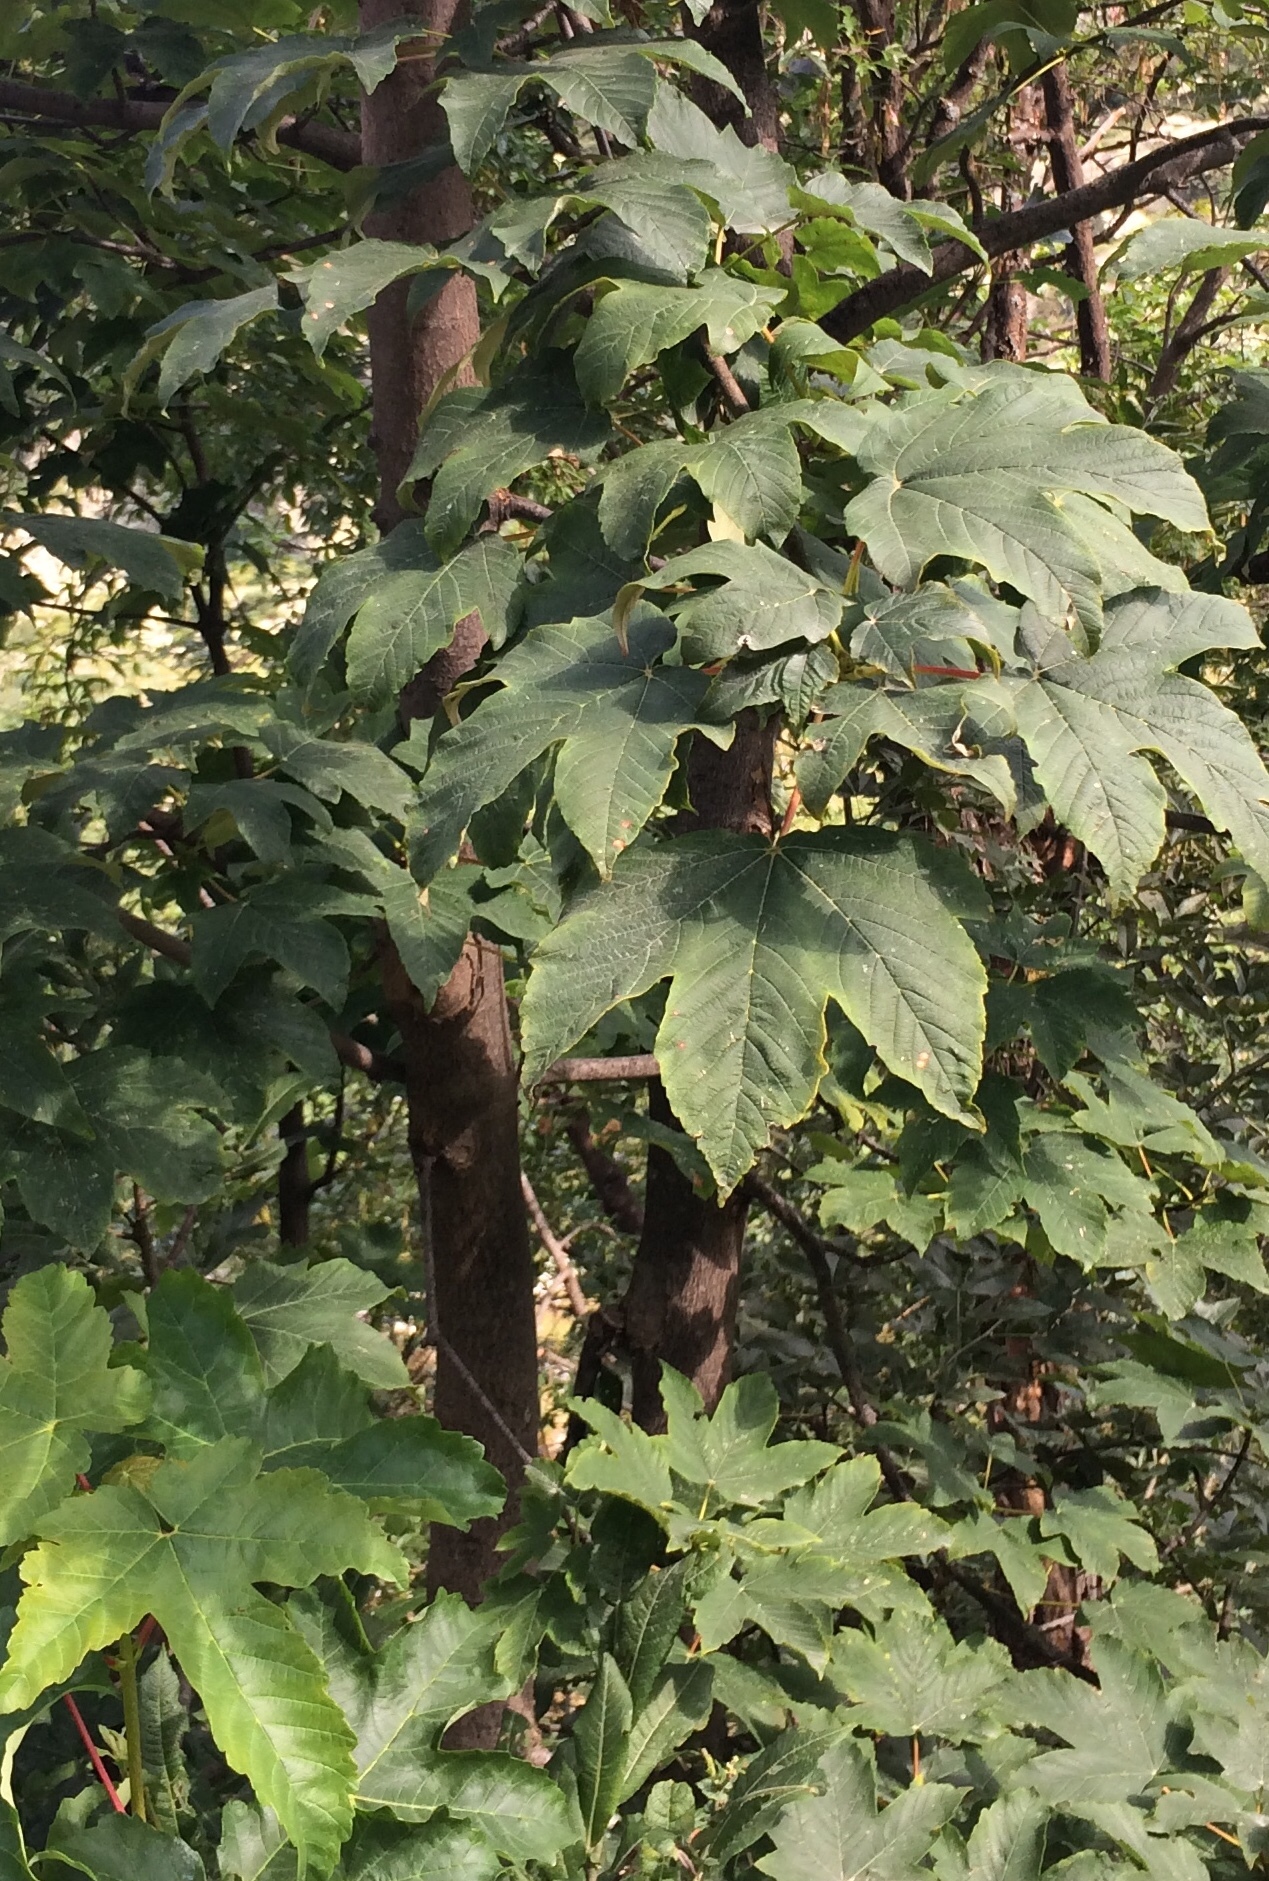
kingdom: Plantae
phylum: Tracheophyta
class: Magnoliopsida
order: Sapindales
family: Sapindaceae
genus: Acer
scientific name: Acer pseudoplatanus
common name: Sycamore
